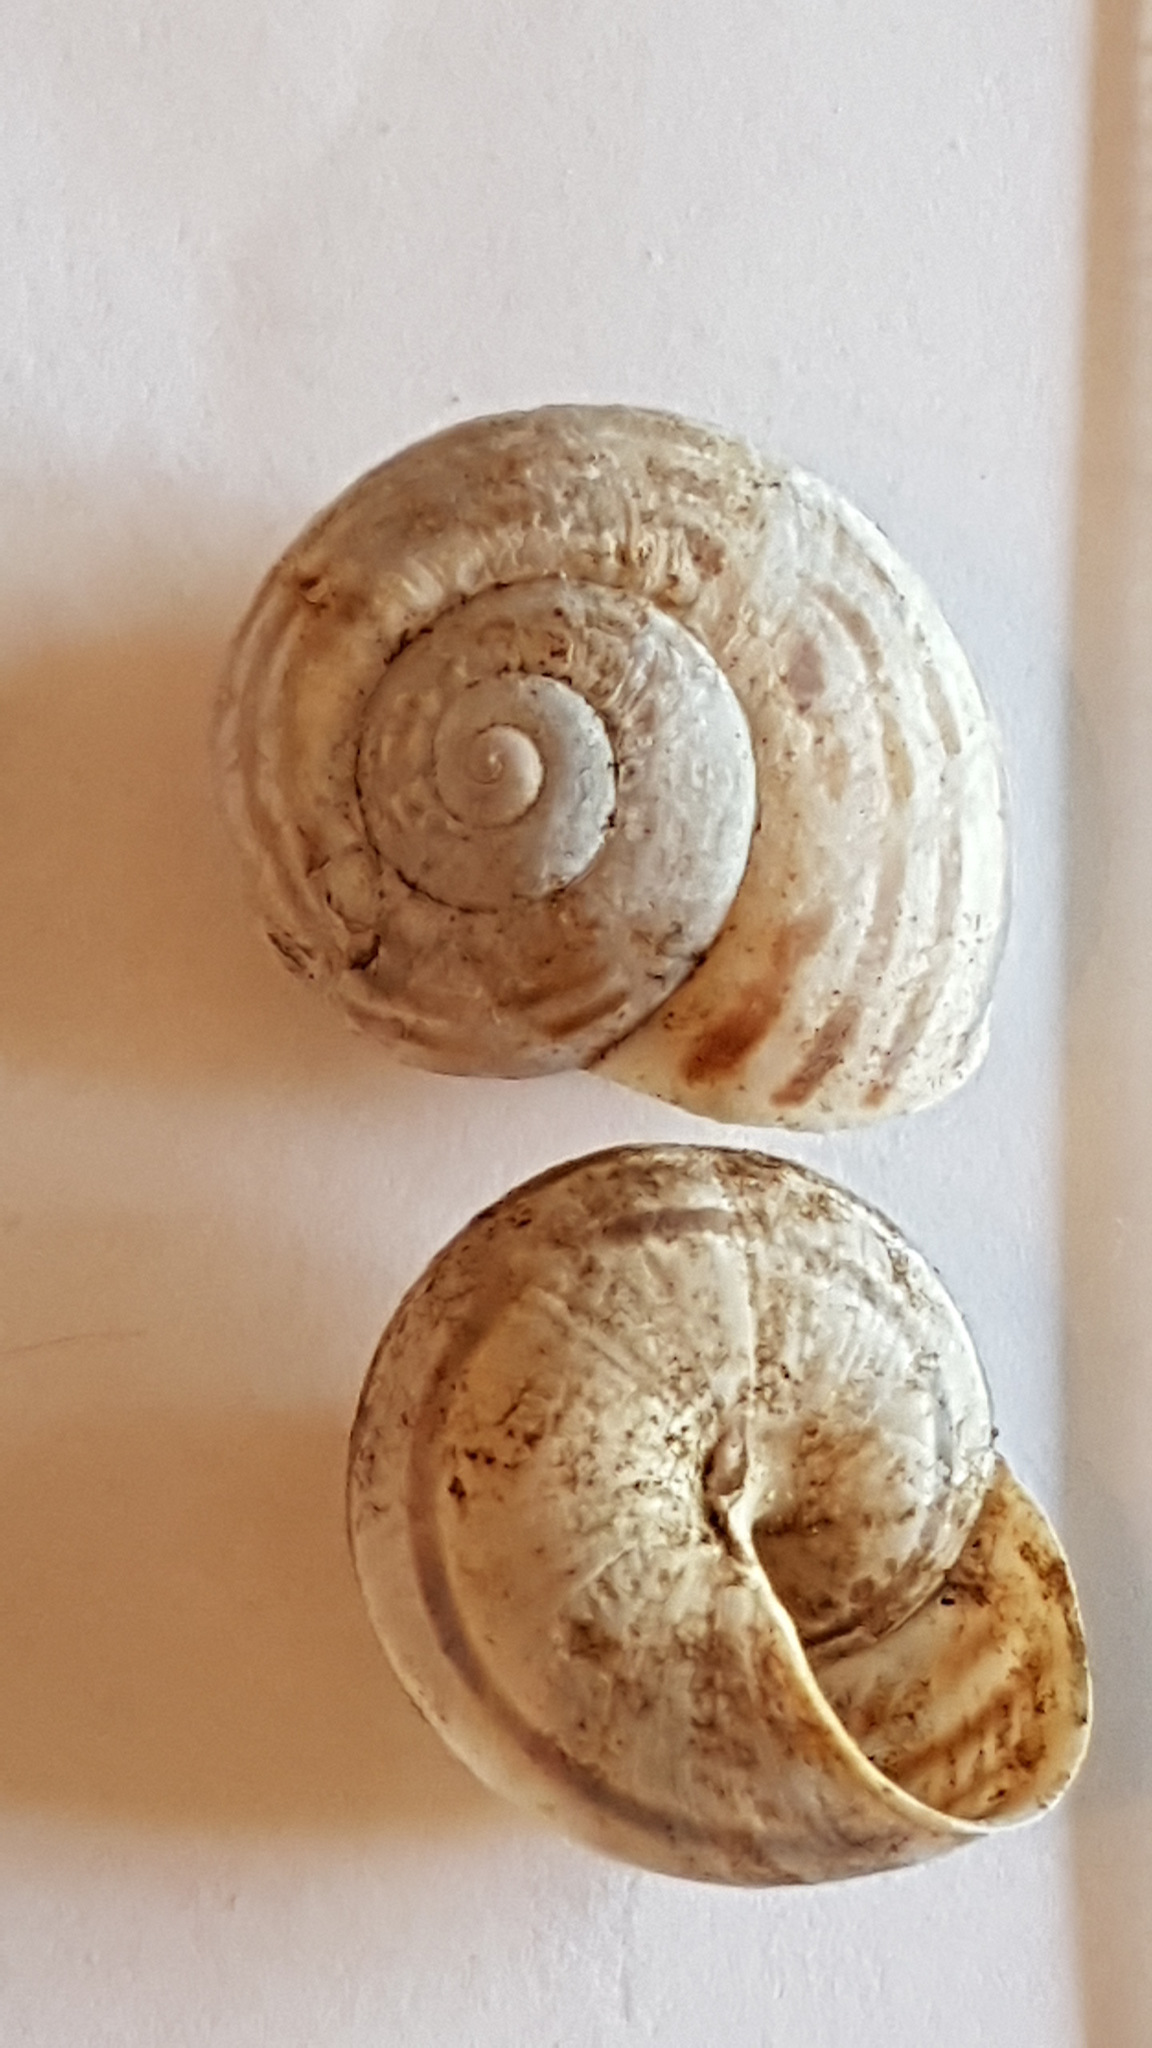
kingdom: Animalia
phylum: Mollusca
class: Gastropoda
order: Stylommatophora
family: Helicidae
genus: Pseudotachea
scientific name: Pseudotachea splendida
